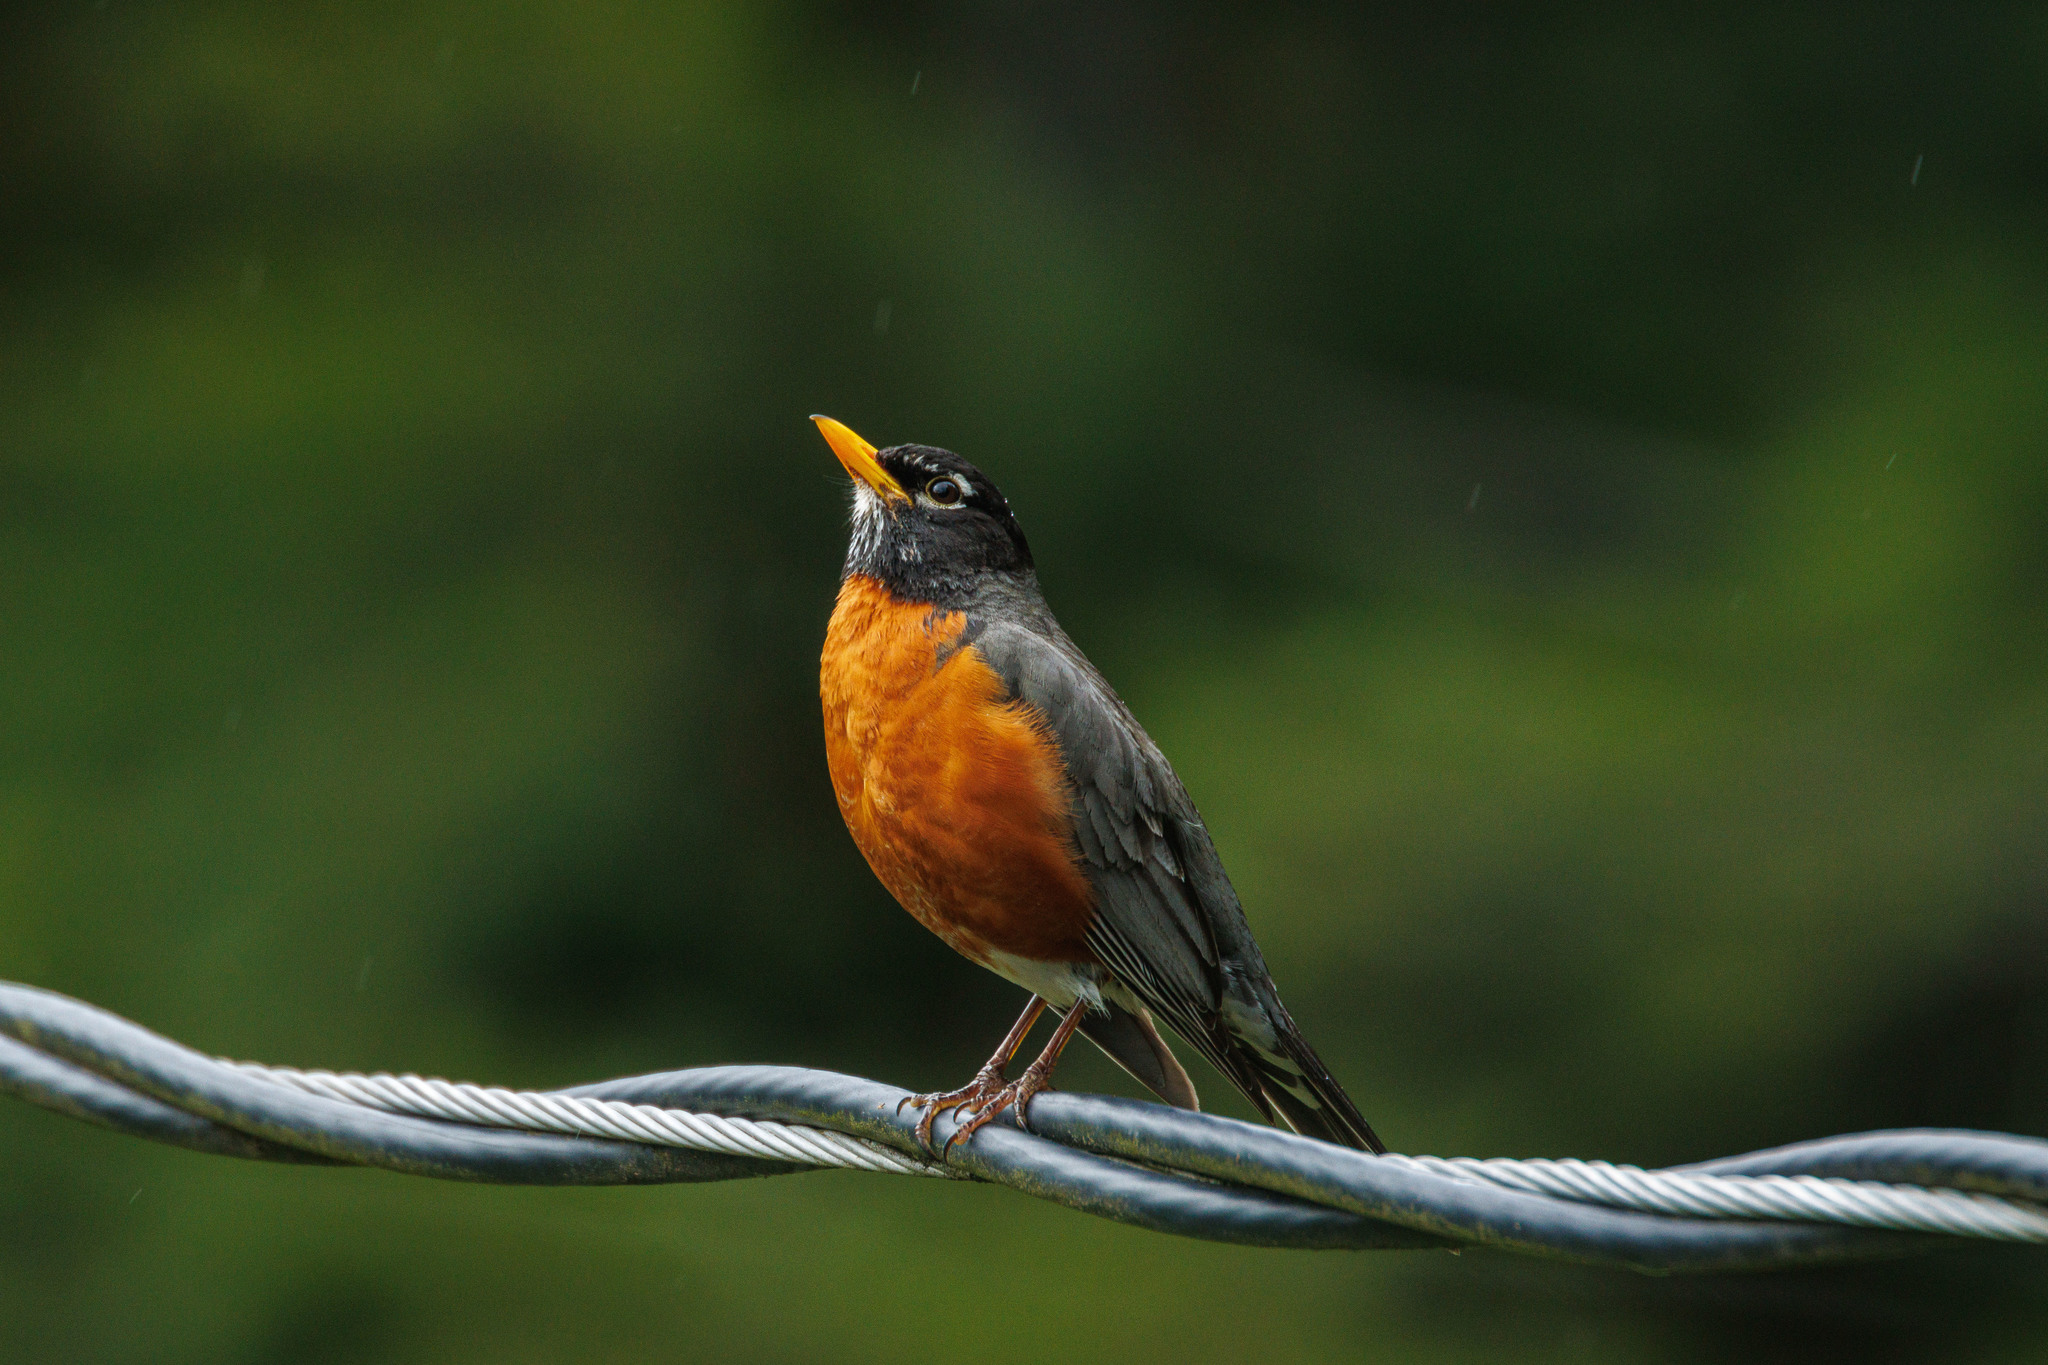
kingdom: Animalia
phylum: Chordata
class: Aves
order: Passeriformes
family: Turdidae
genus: Turdus
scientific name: Turdus migratorius
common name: American robin
